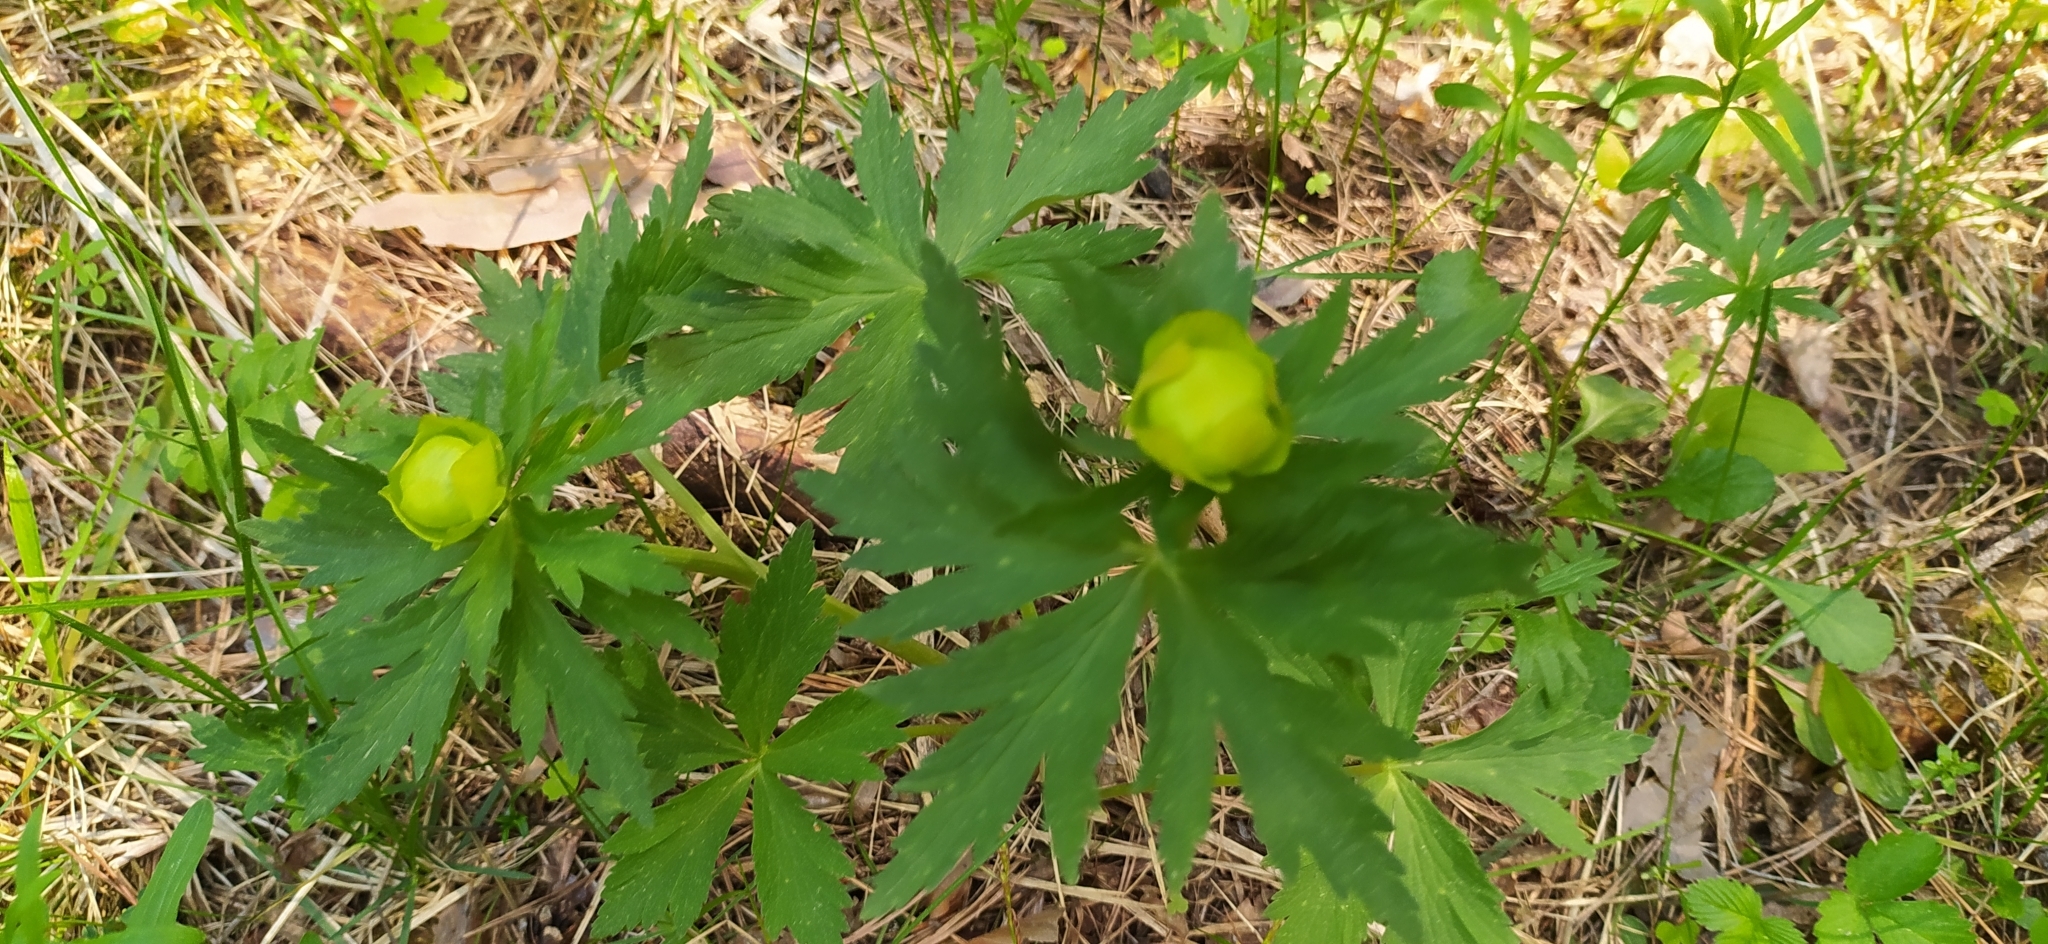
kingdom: Plantae
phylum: Tracheophyta
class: Magnoliopsida
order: Ranunculales
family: Ranunculaceae
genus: Trollius
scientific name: Trollius europaeus
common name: European globeflower
